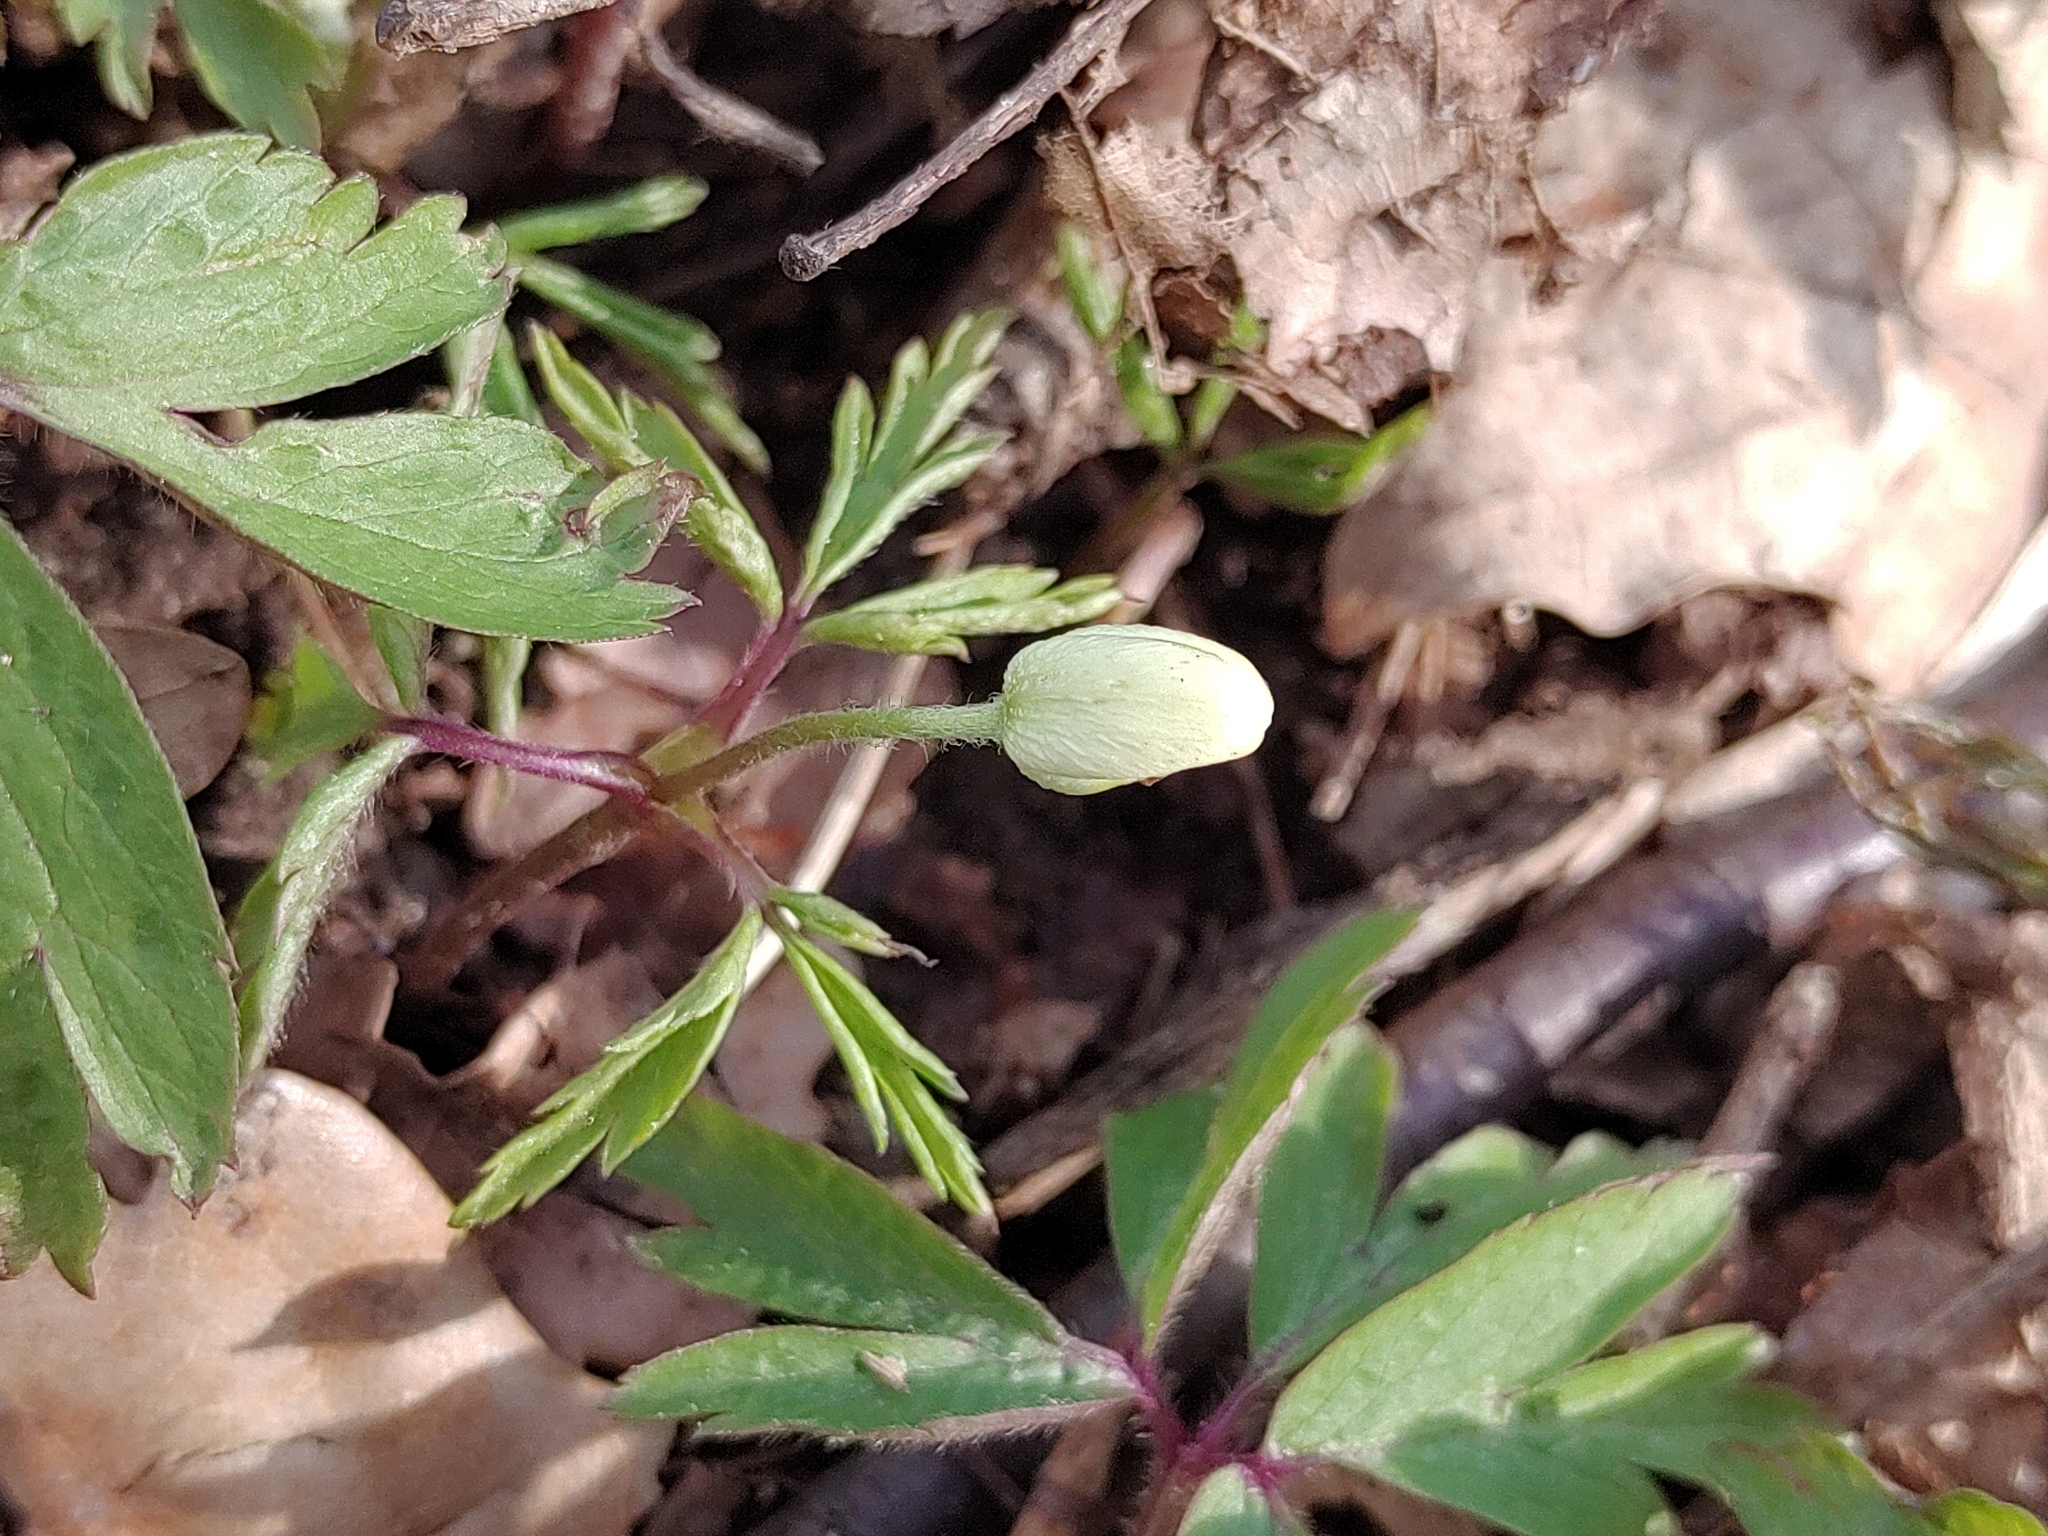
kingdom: Plantae
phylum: Tracheophyta
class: Magnoliopsida
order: Ranunculales
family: Ranunculaceae
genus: Anemone
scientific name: Anemone nemorosa
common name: Wood anemone
